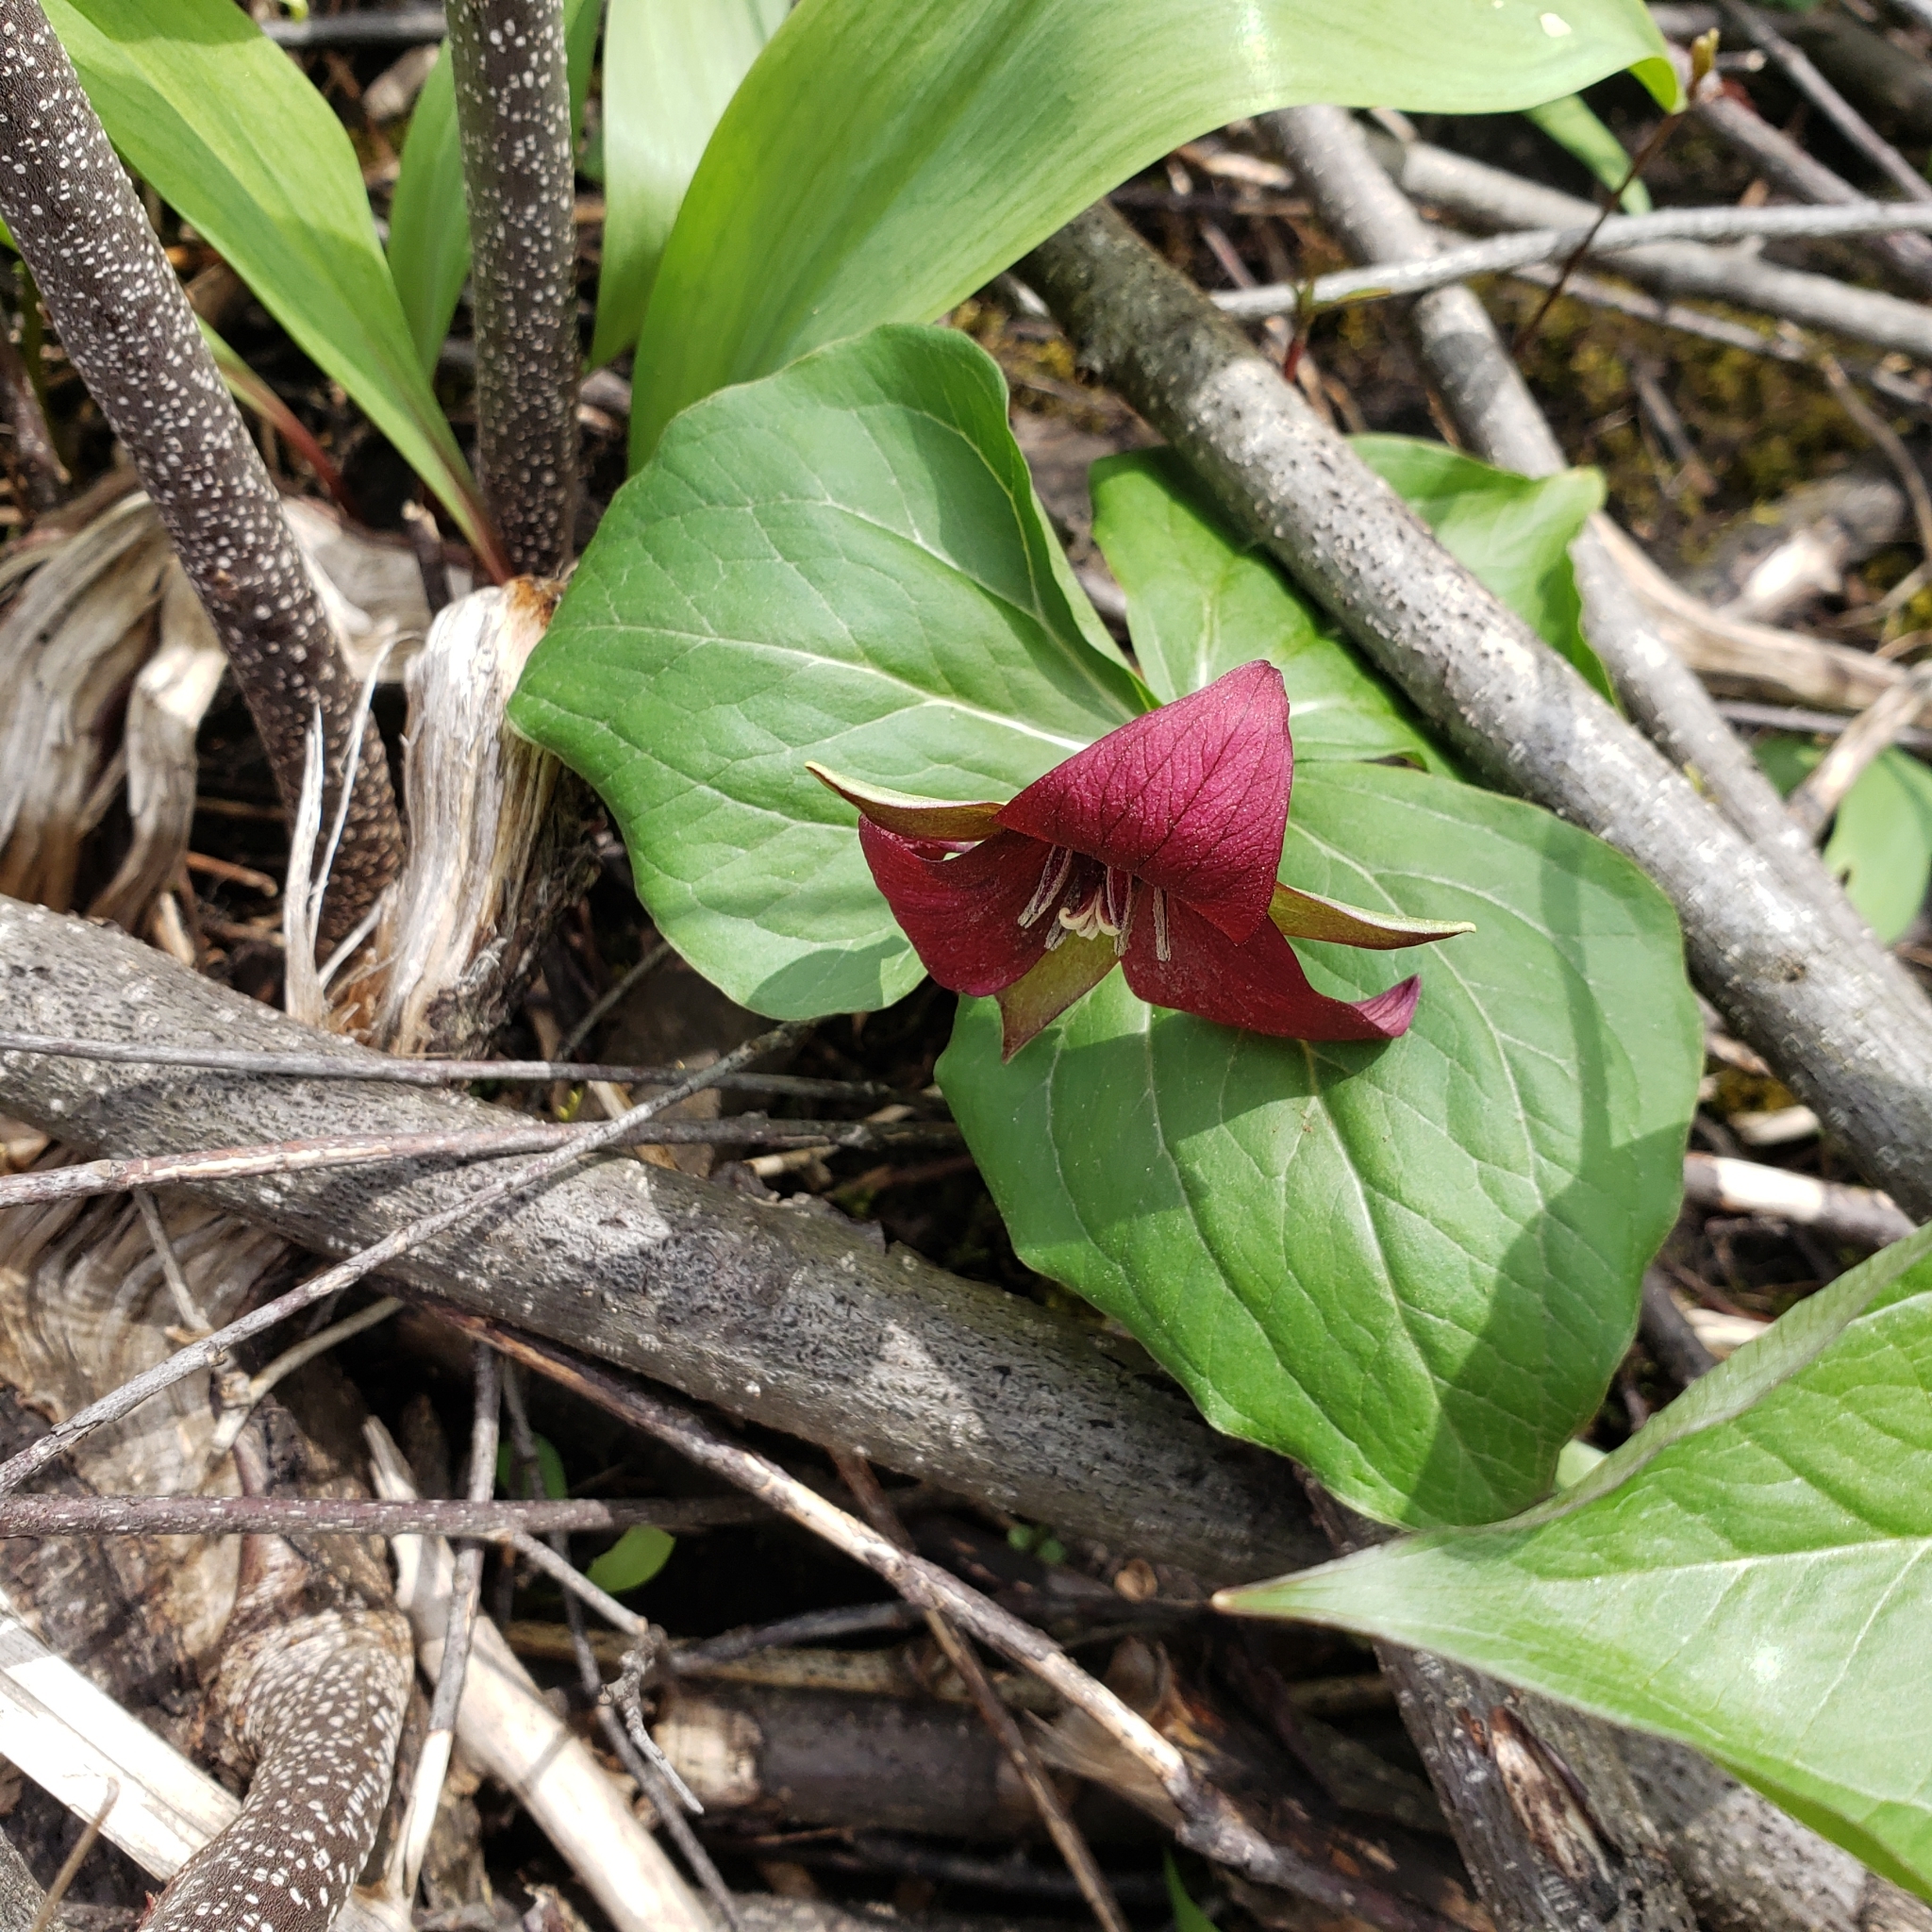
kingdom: Plantae
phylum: Tracheophyta
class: Liliopsida
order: Liliales
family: Melanthiaceae
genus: Trillium
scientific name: Trillium erectum
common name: Purple trillium
